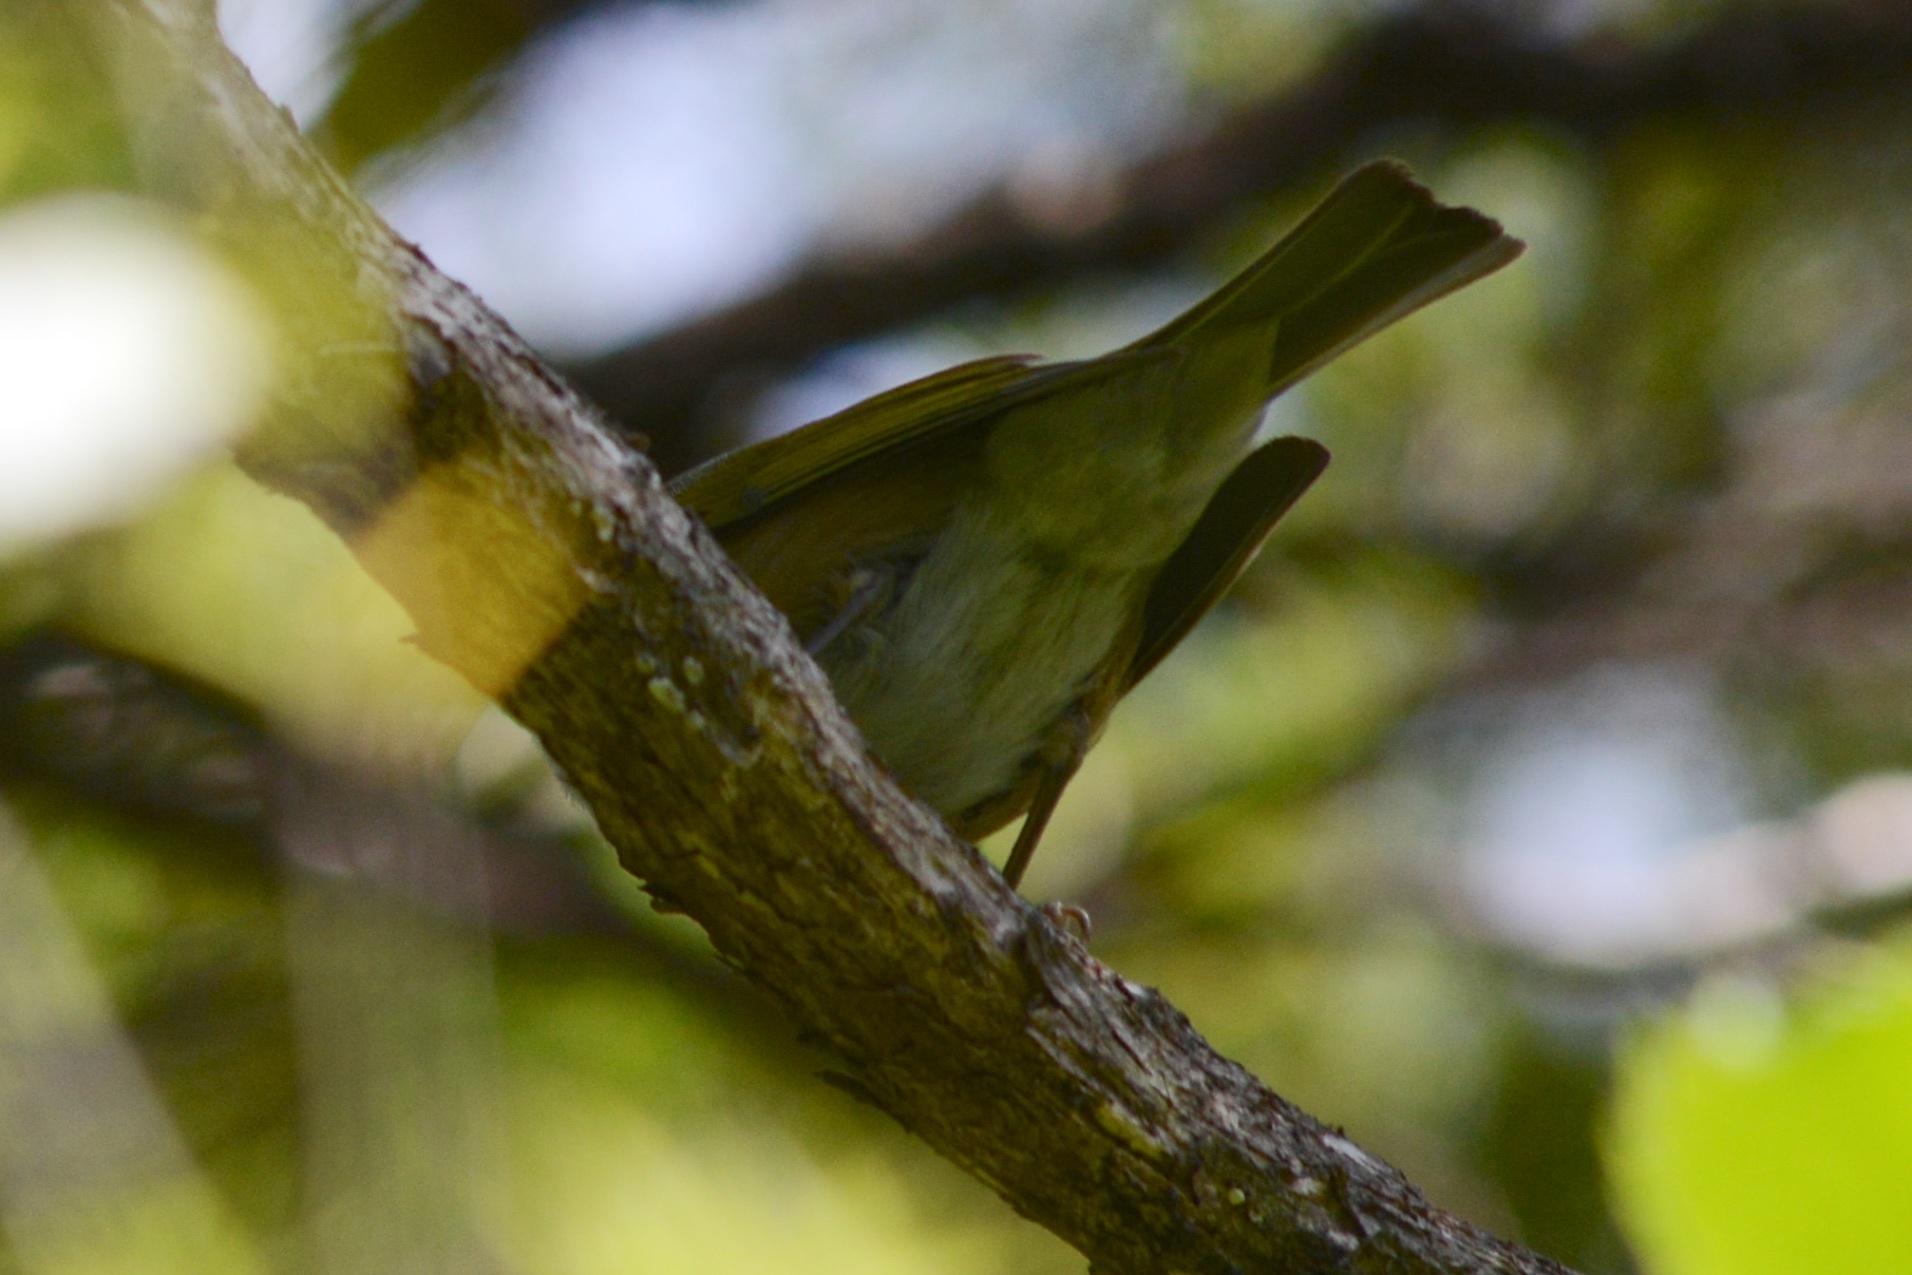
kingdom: Animalia
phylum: Chordata
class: Aves
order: Passeriformes
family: Zosteropidae
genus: Zosterops
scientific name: Zosterops lateralis
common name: Silvereye
